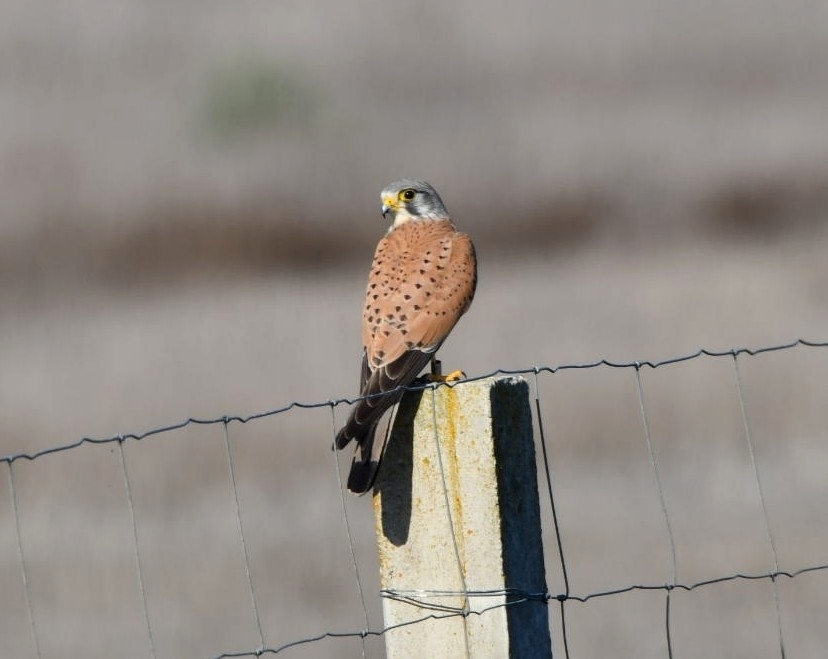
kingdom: Animalia
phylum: Chordata
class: Aves
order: Falconiformes
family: Falconidae
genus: Falco
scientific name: Falco tinnunculus
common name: Common kestrel
